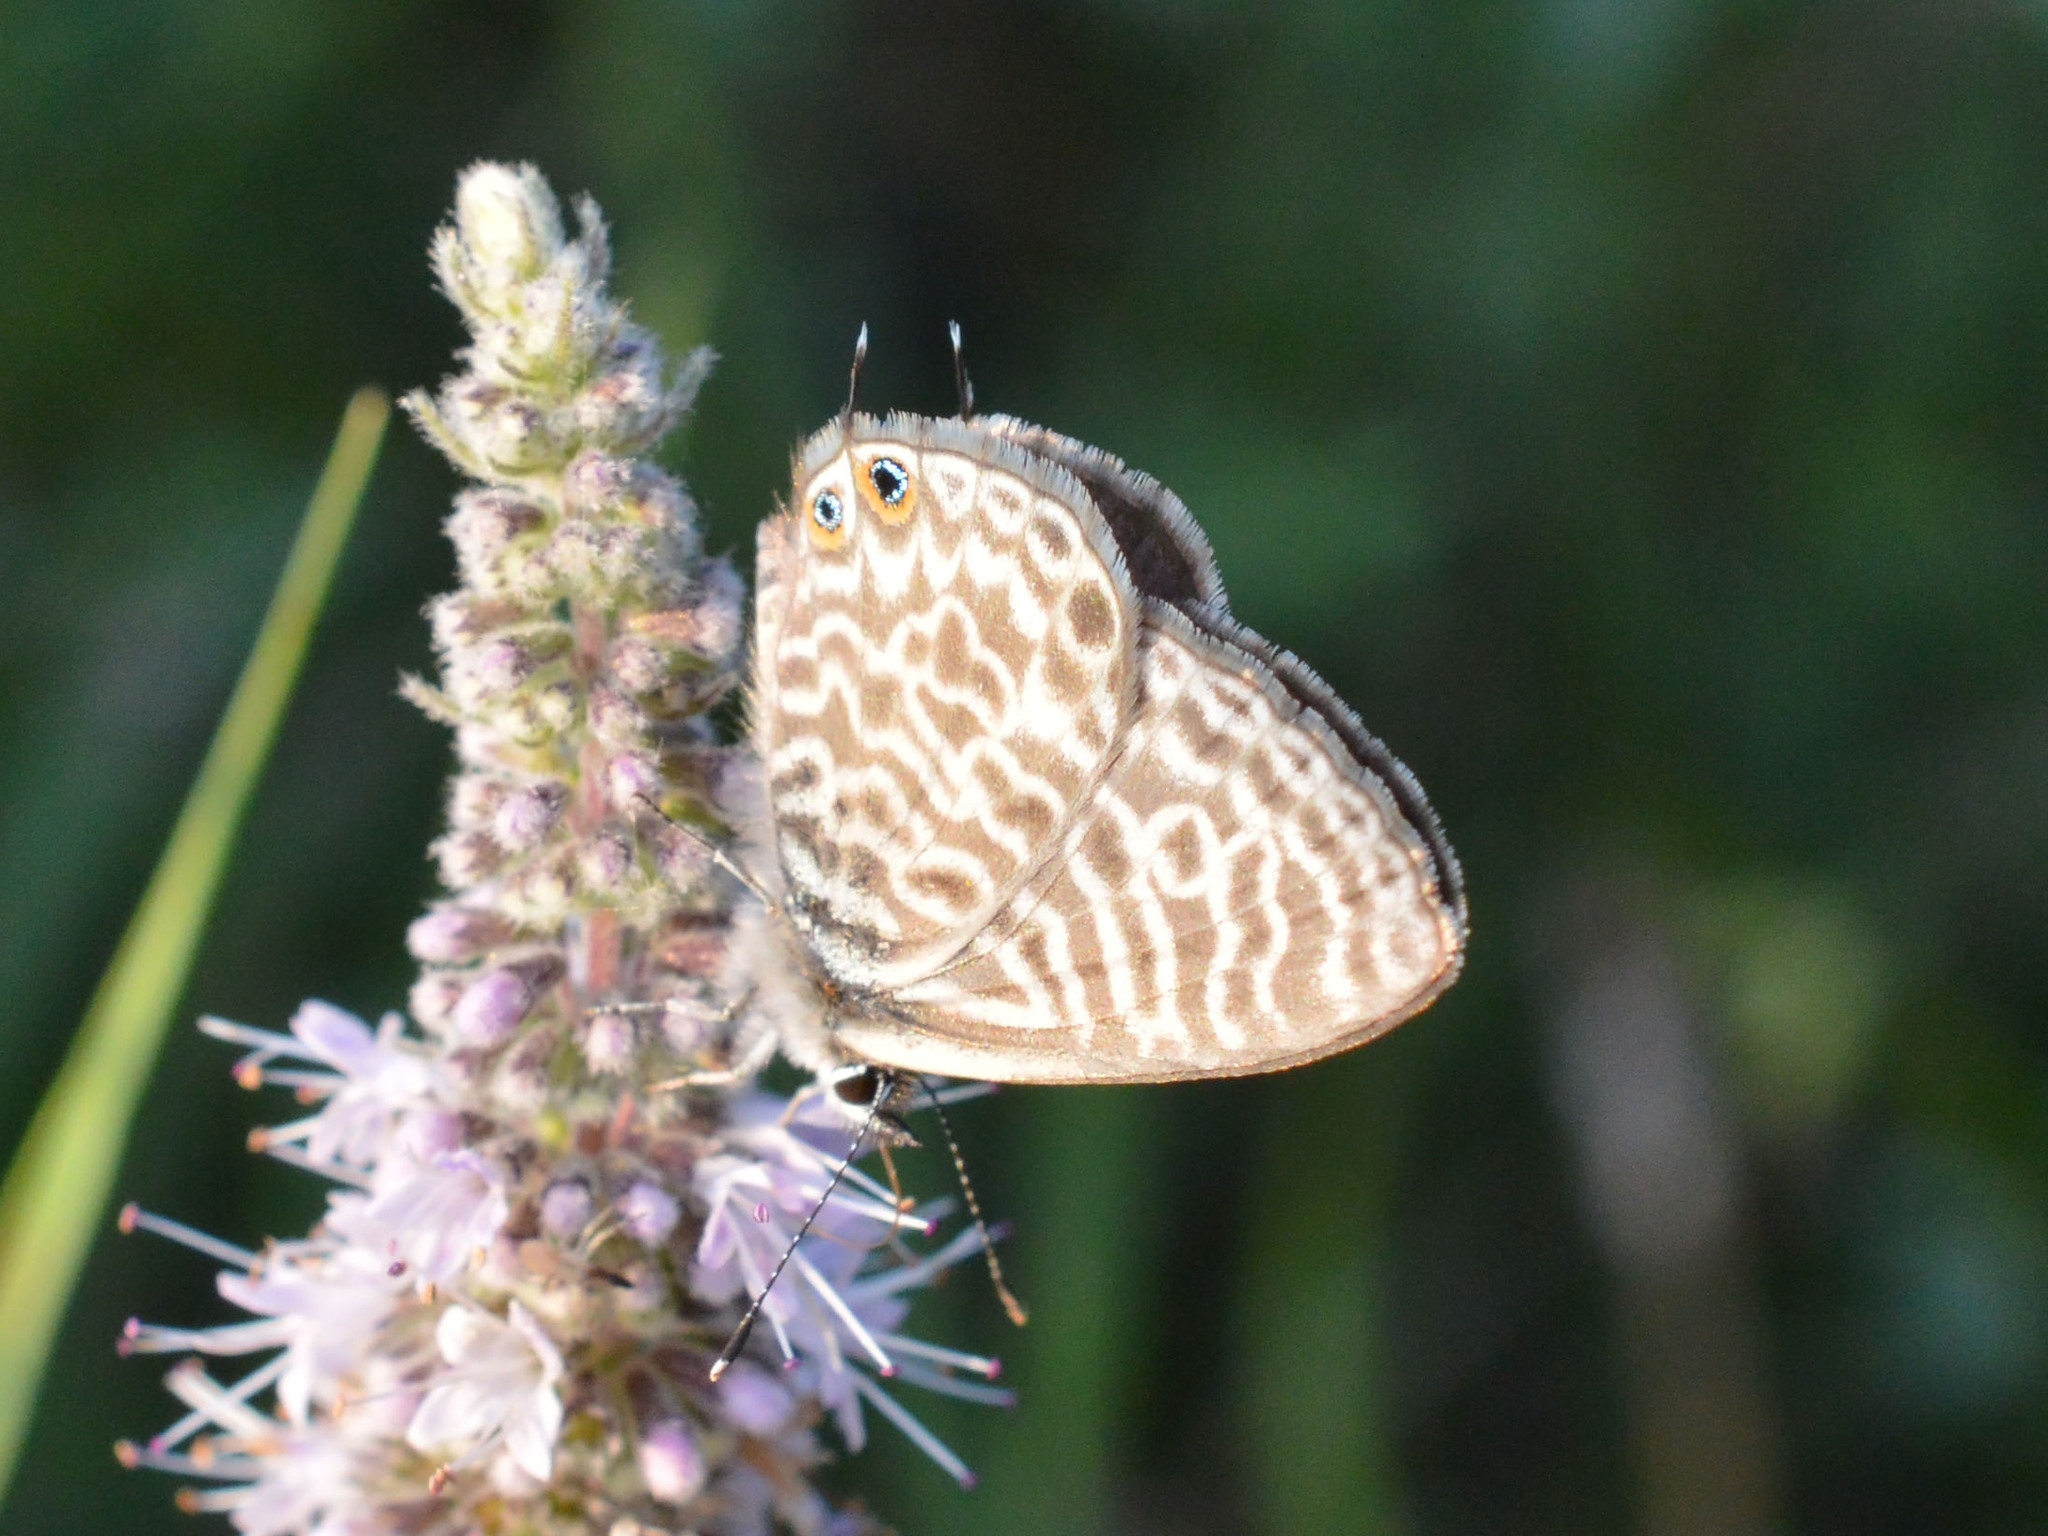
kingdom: Animalia
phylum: Arthropoda
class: Insecta
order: Lepidoptera
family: Lycaenidae
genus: Leptotes
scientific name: Leptotes pirithous
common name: Lang's short-tailed blue
